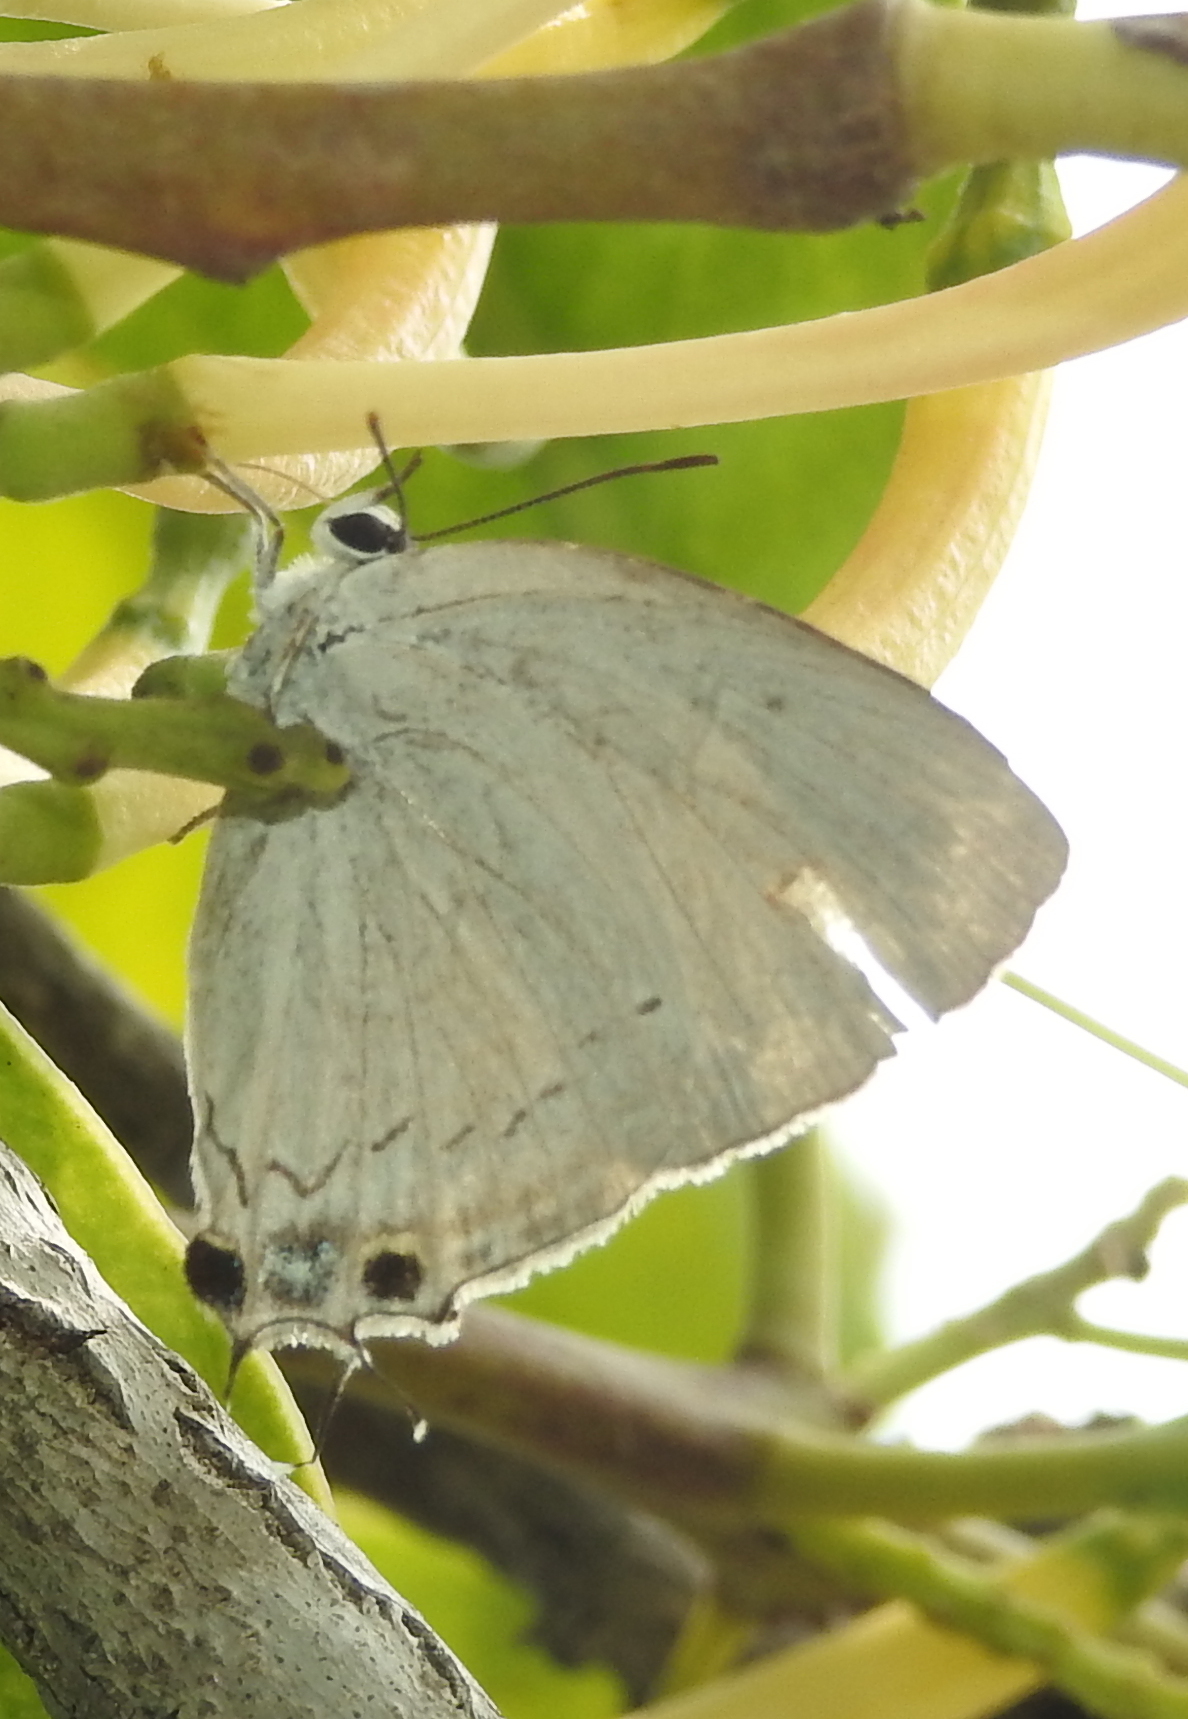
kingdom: Animalia
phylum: Arthropoda
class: Insecta
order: Lepidoptera
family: Lycaenidae
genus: Tajuria
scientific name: Tajuria cippus
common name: Peacock royal
